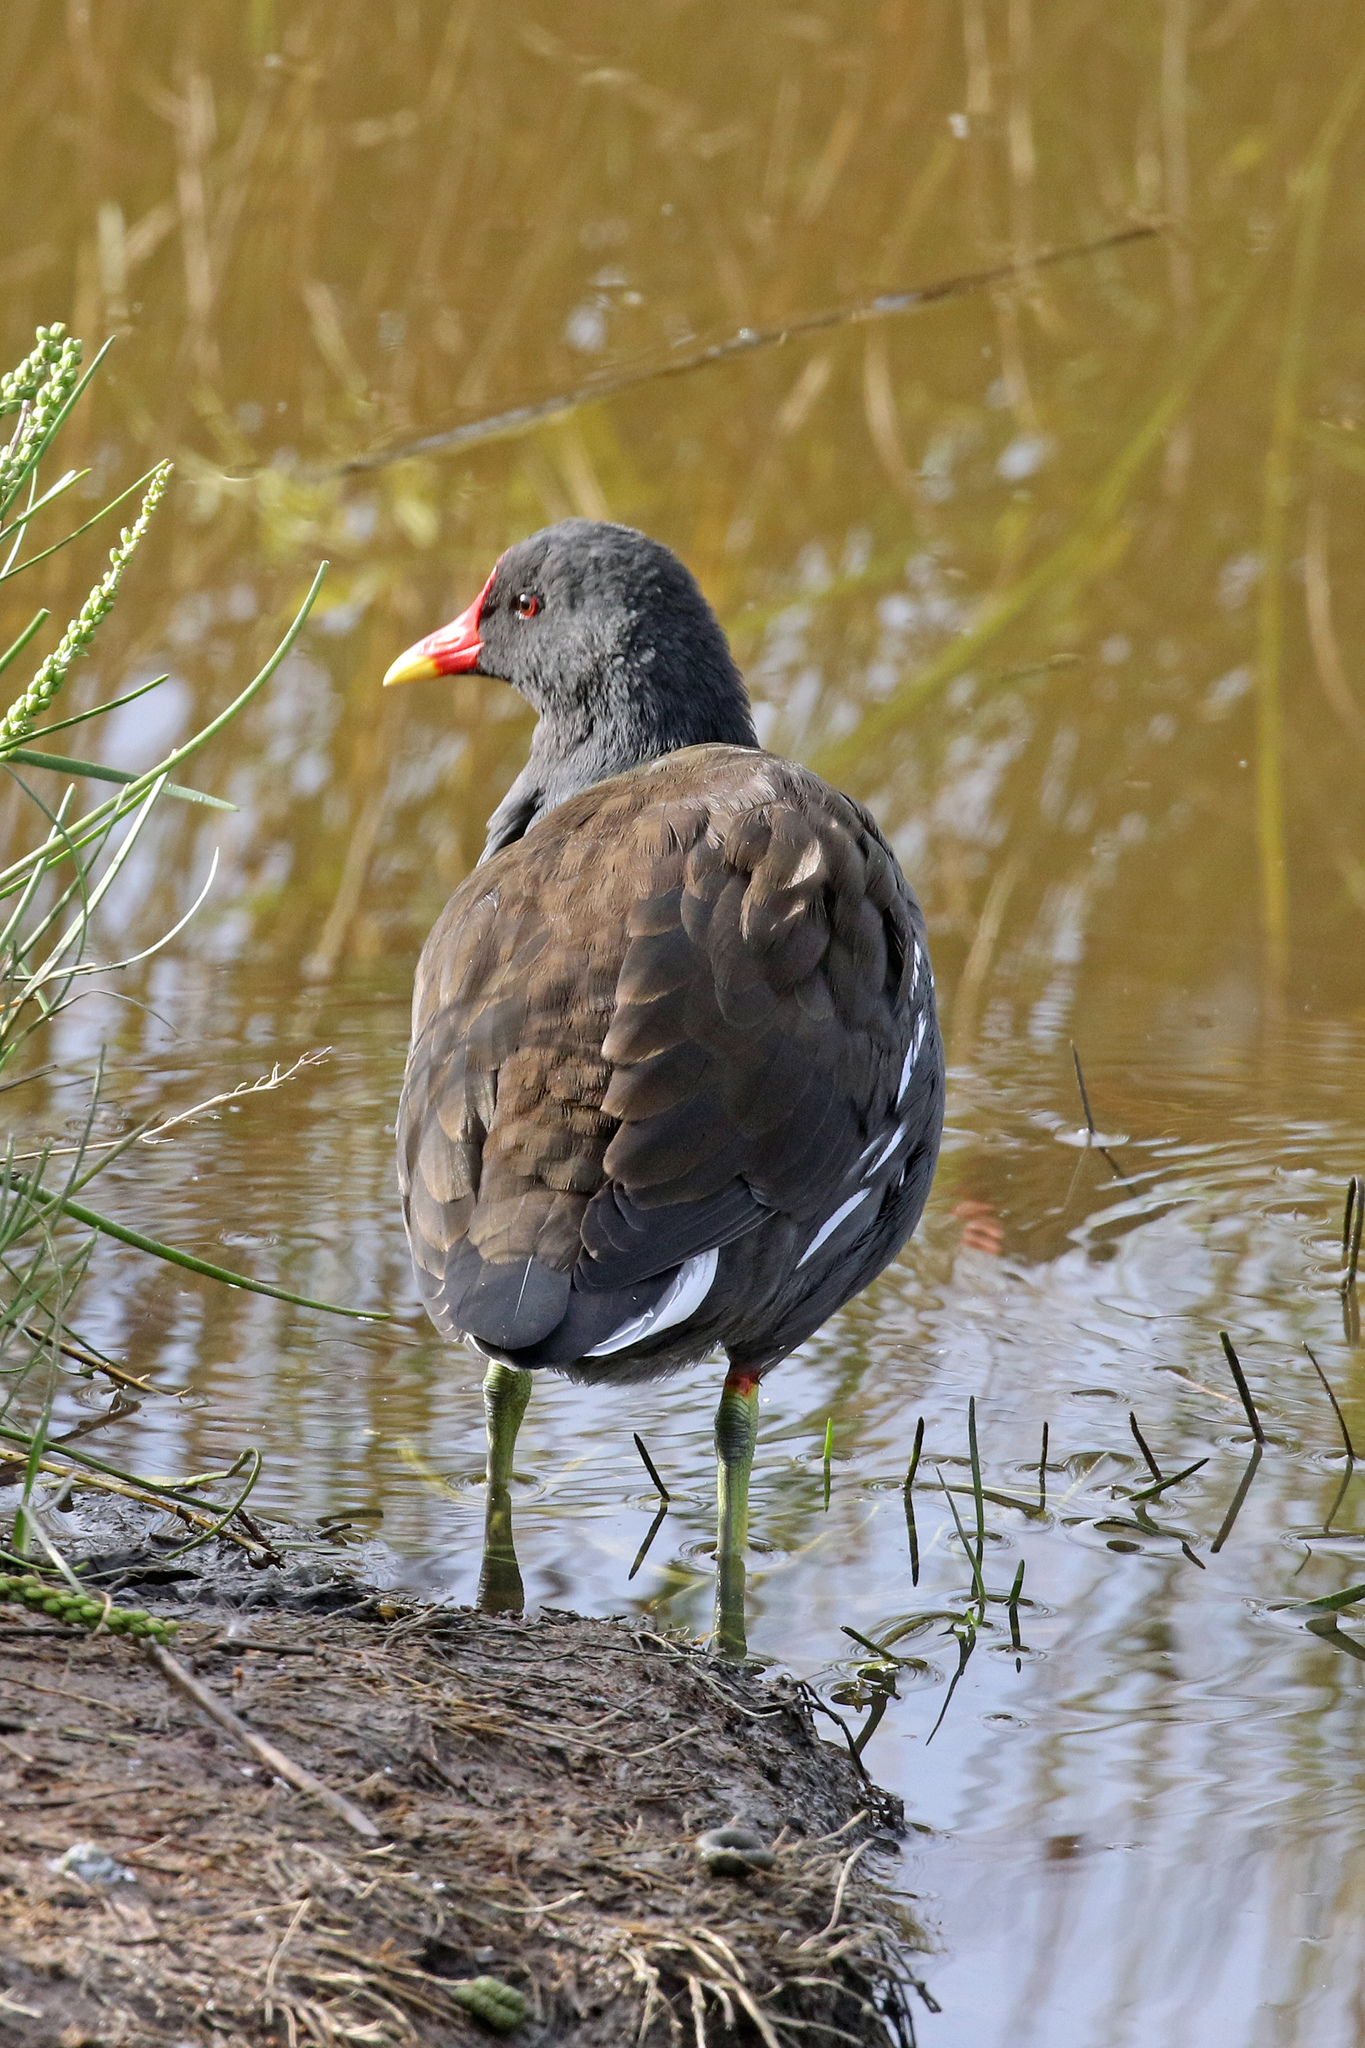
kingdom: Animalia
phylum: Chordata
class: Aves
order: Gruiformes
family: Rallidae
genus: Gallinula
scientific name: Gallinula chloropus
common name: Common moorhen
